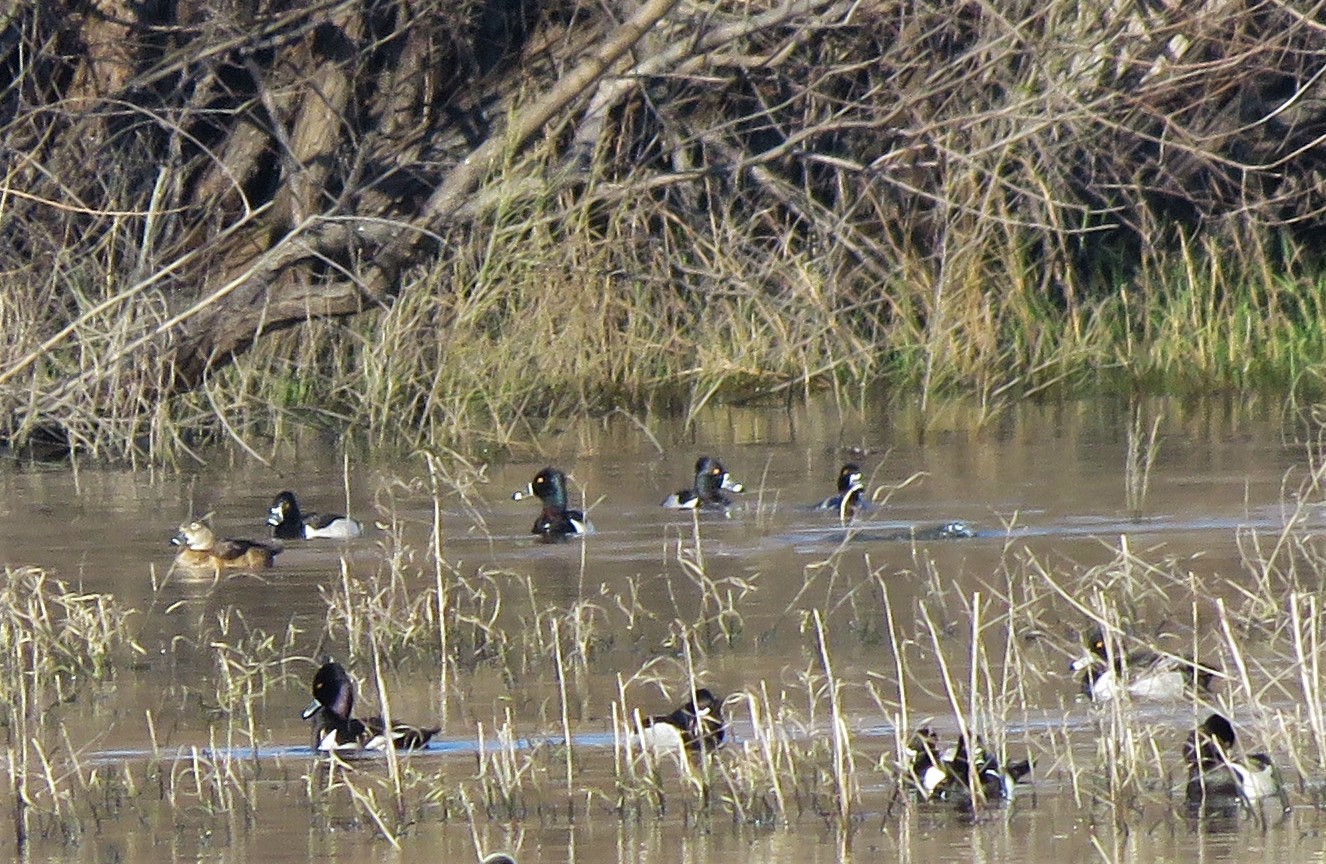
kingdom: Animalia
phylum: Chordata
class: Aves
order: Anseriformes
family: Anatidae
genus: Aythya
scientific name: Aythya collaris
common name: Ring-necked duck
